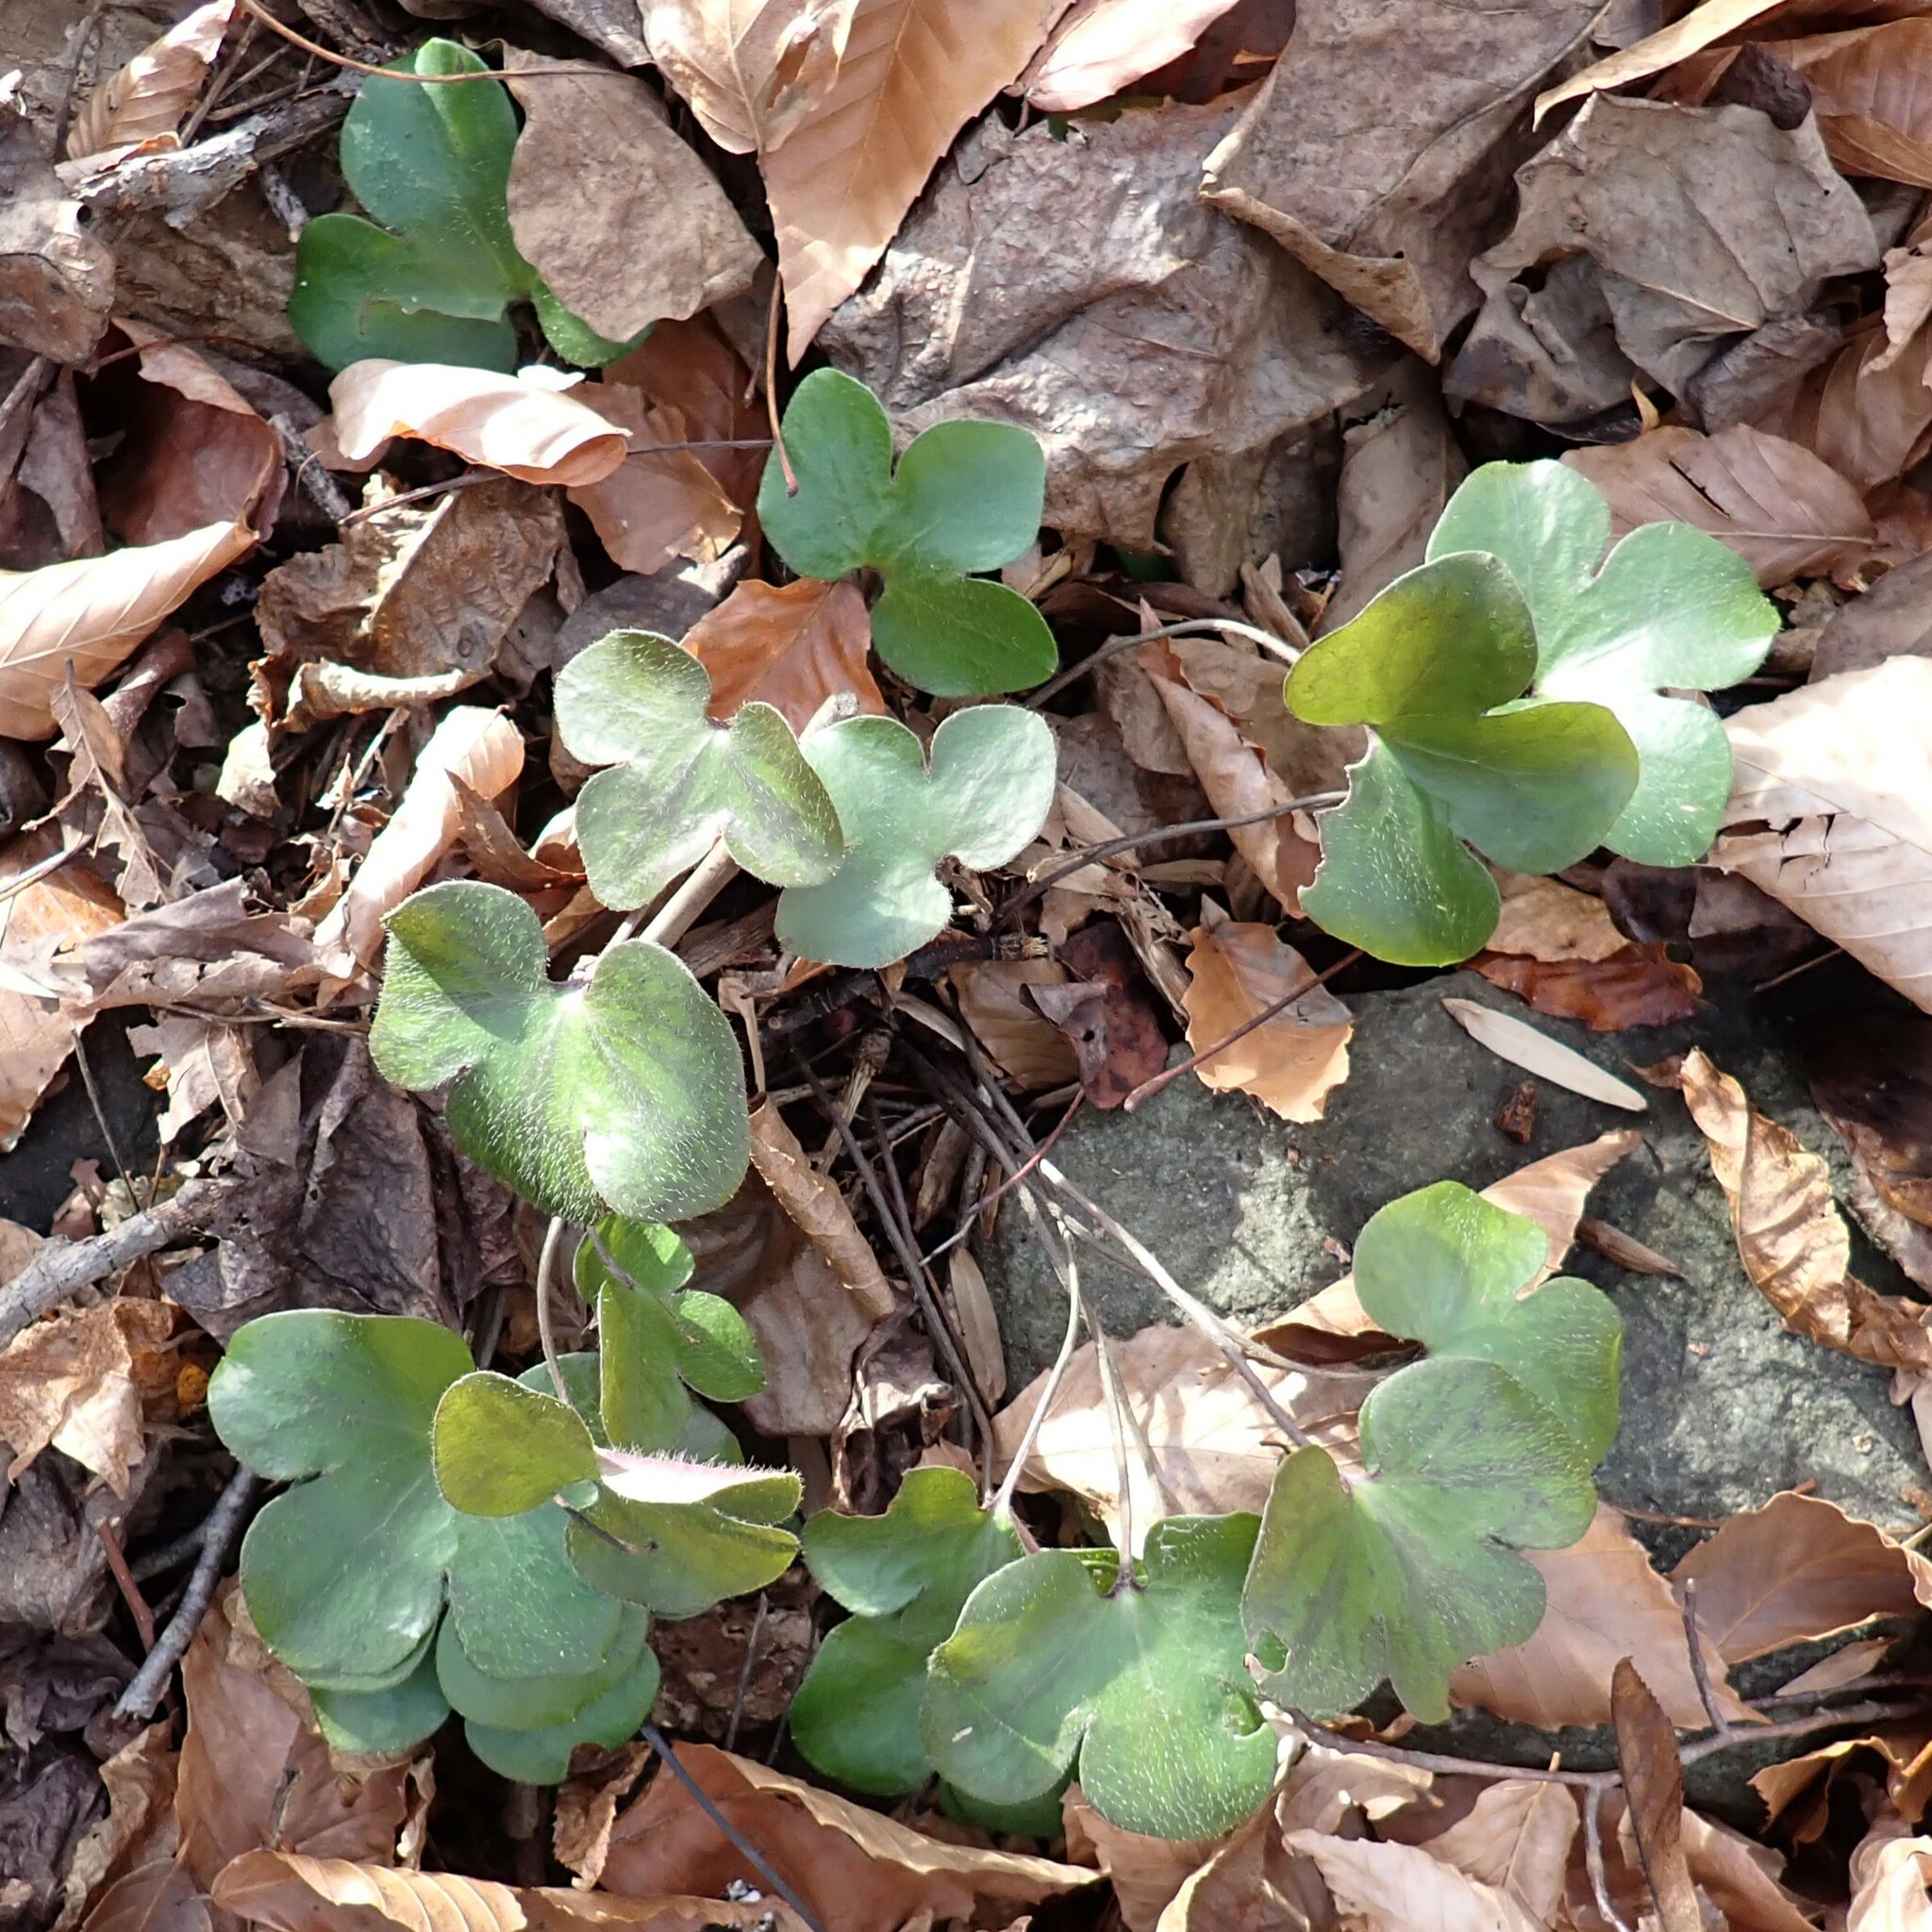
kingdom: Plantae
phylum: Tracheophyta
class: Magnoliopsida
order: Ranunculales
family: Ranunculaceae
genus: Hepatica
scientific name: Hepatica americana
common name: American hepatica
